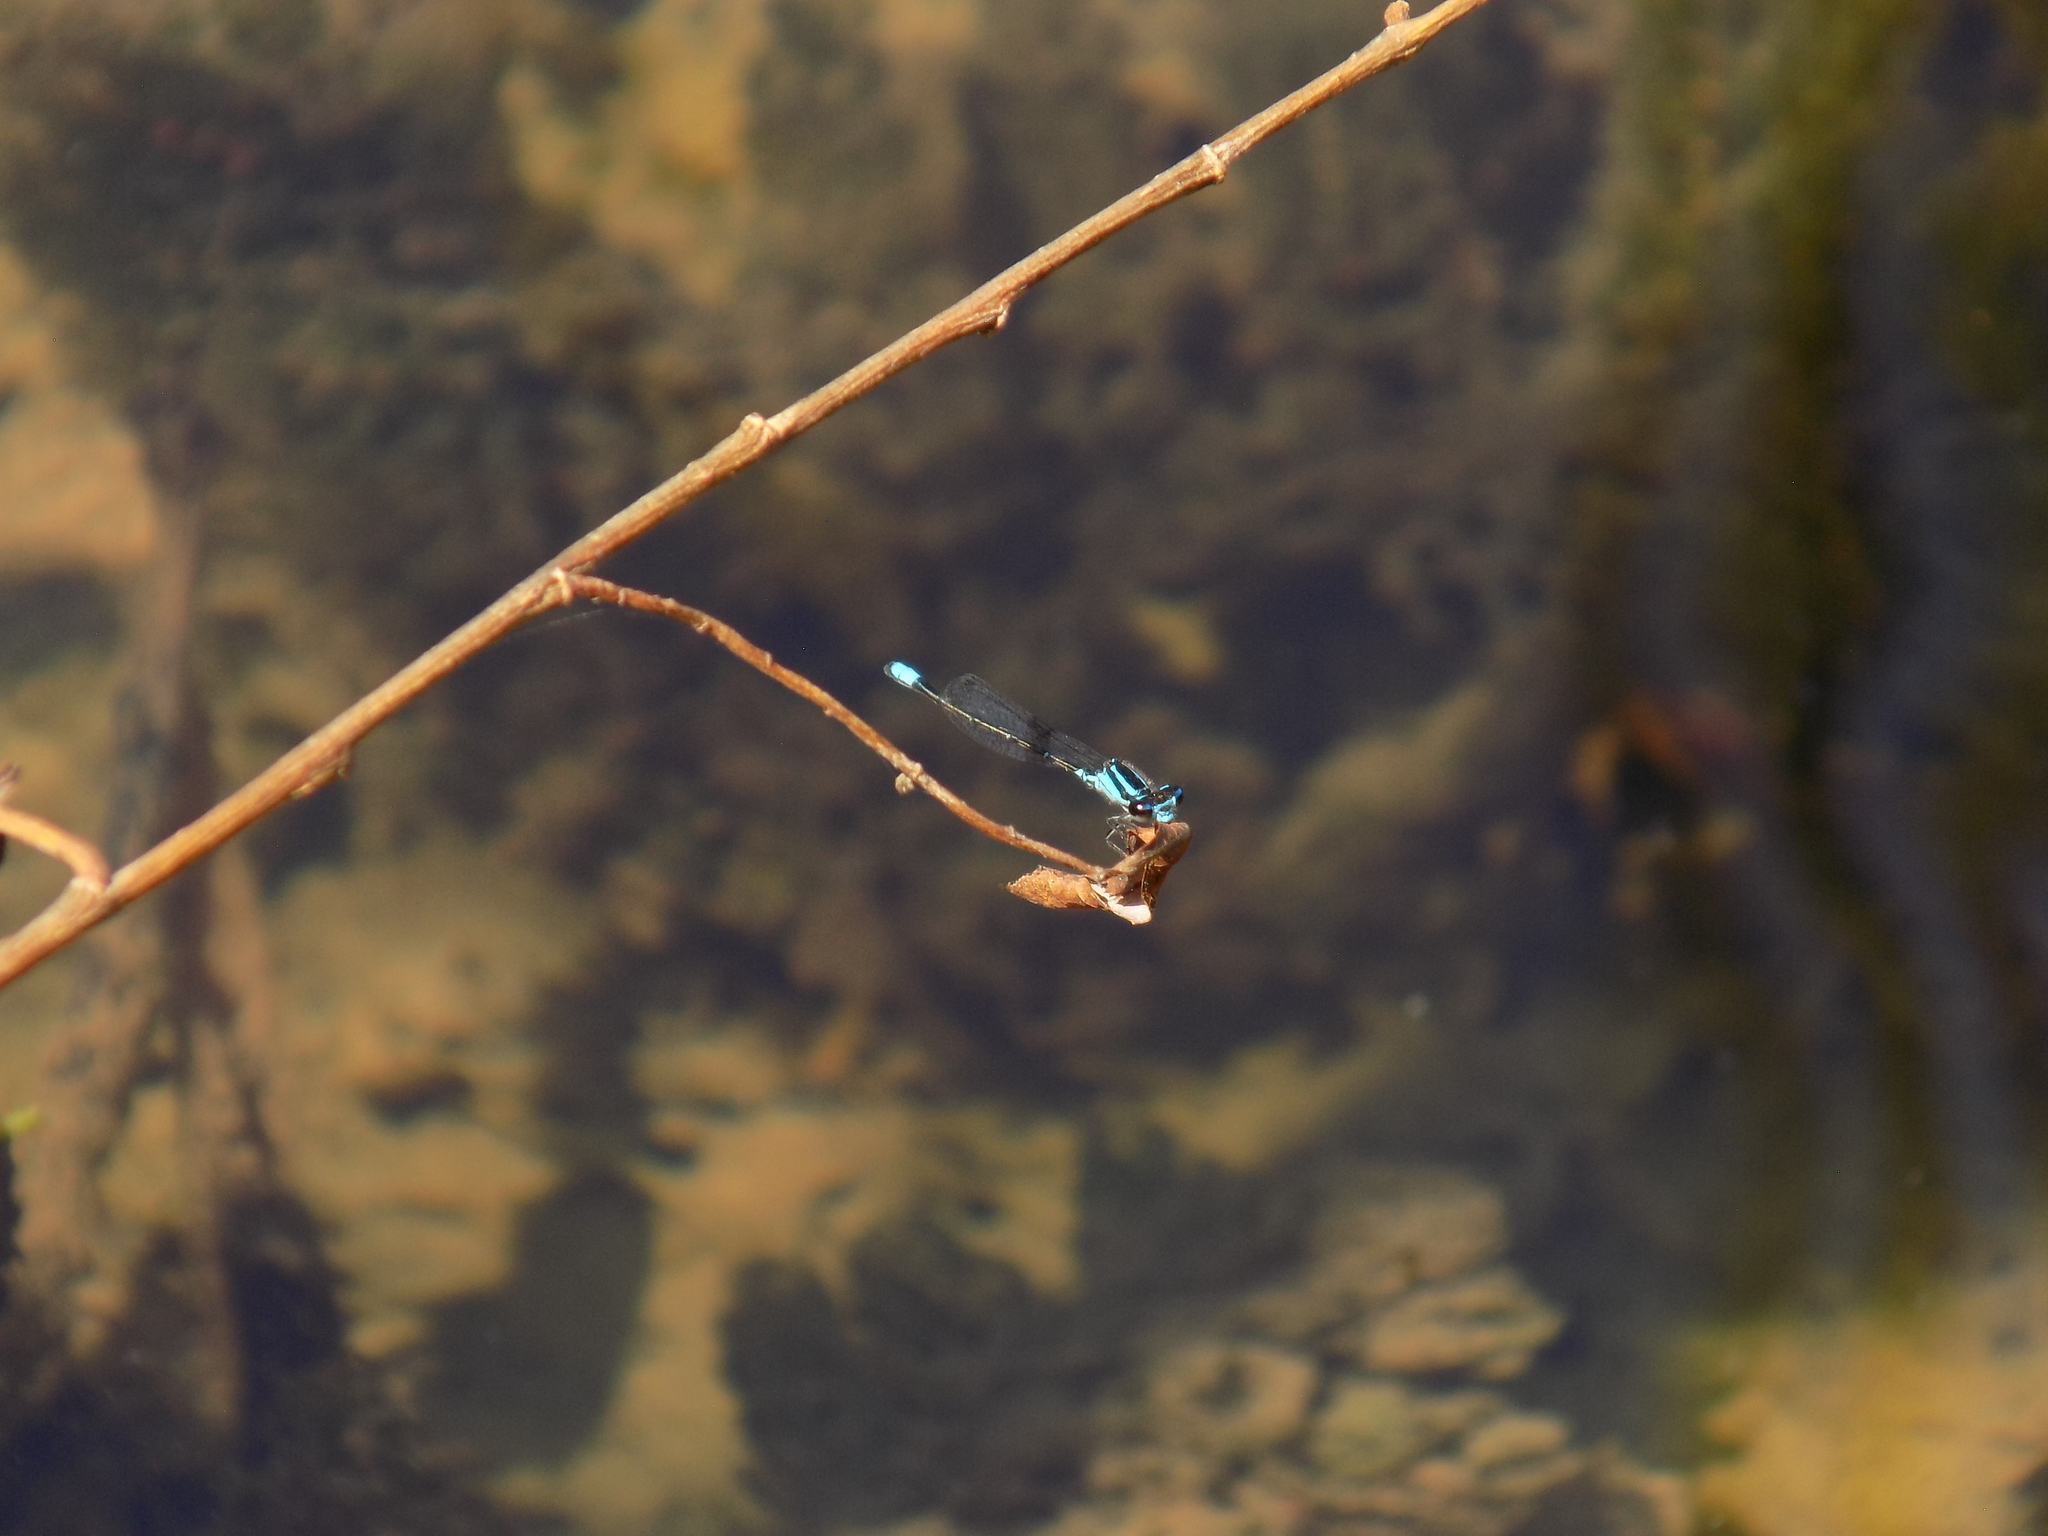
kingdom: Animalia
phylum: Arthropoda
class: Insecta
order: Odonata
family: Coenagrionidae
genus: Enallagma
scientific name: Enallagma geminatum
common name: Skimming bluet
